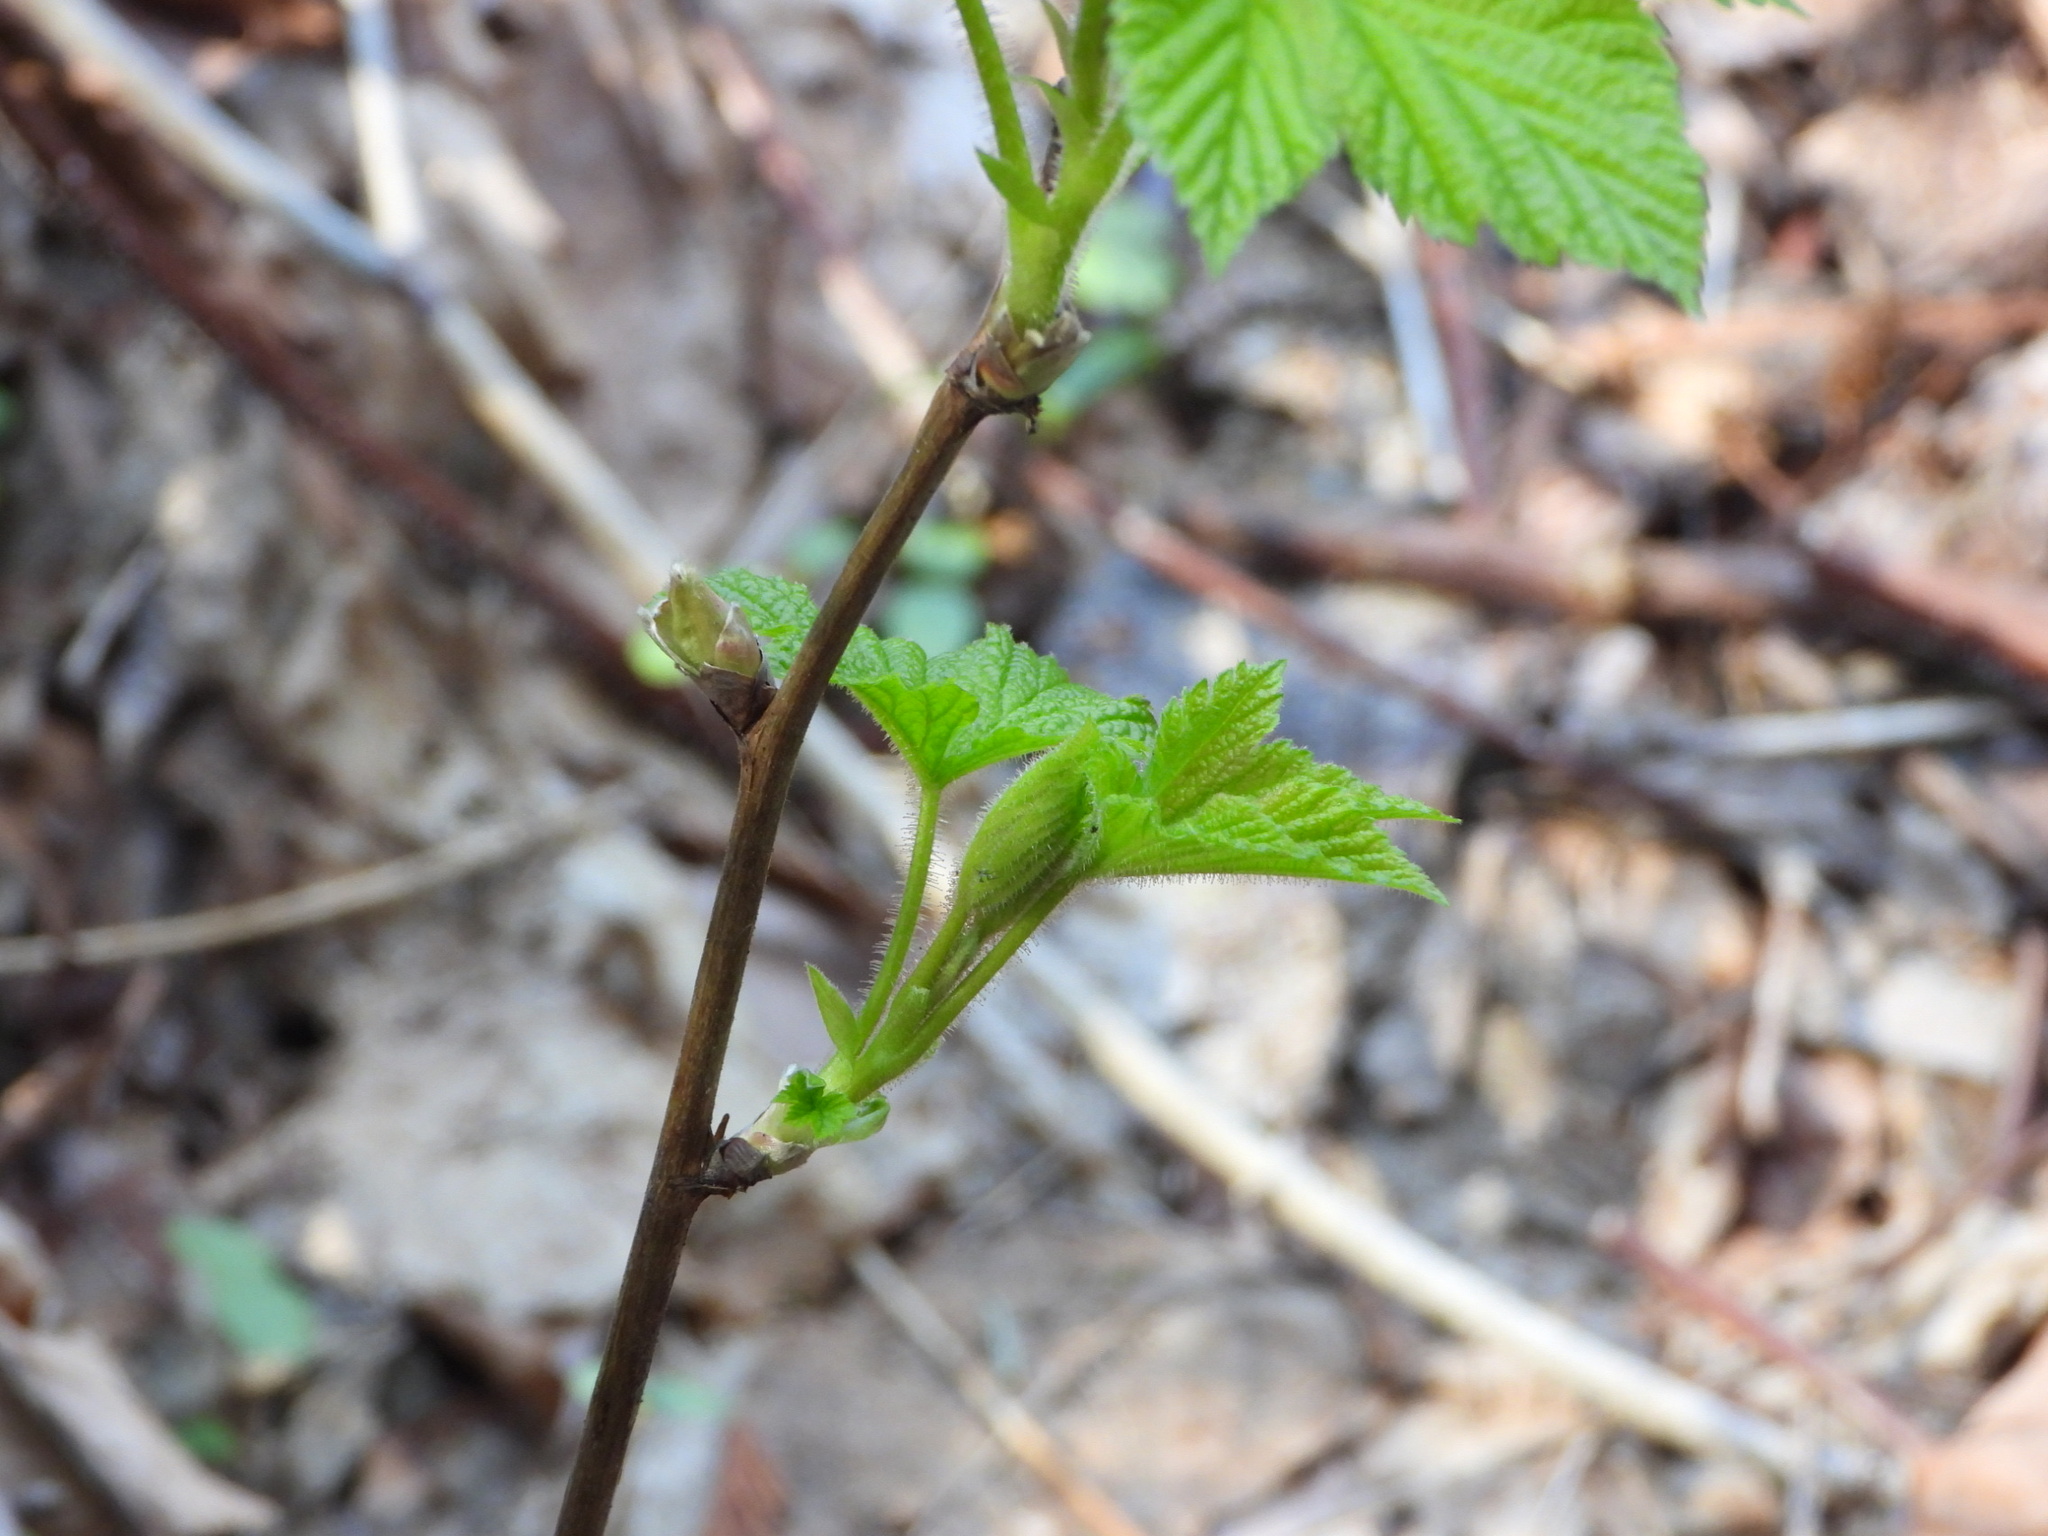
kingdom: Plantae
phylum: Tracheophyta
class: Magnoliopsida
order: Rosales
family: Rosaceae
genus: Rubus
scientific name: Rubus parviflorus
